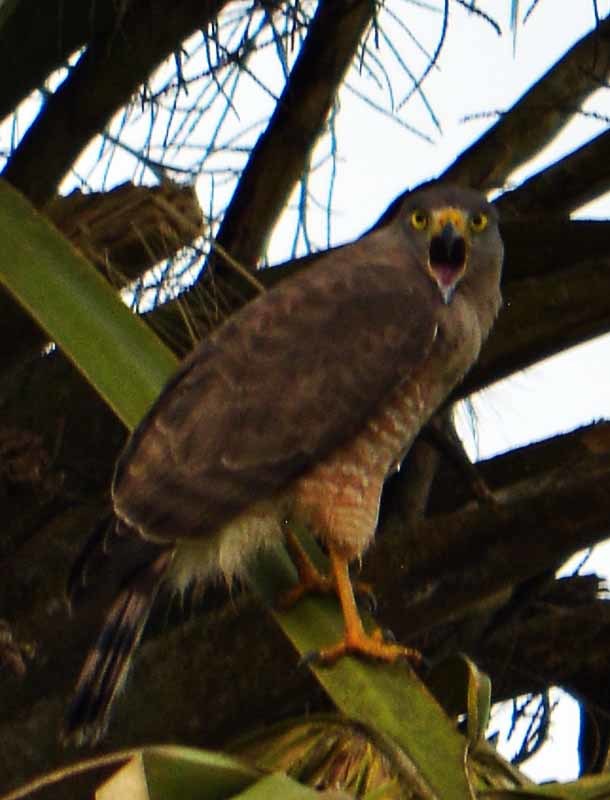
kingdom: Animalia
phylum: Chordata
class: Aves
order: Accipitriformes
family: Accipitridae
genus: Rupornis
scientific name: Rupornis magnirostris
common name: Roadside hawk
